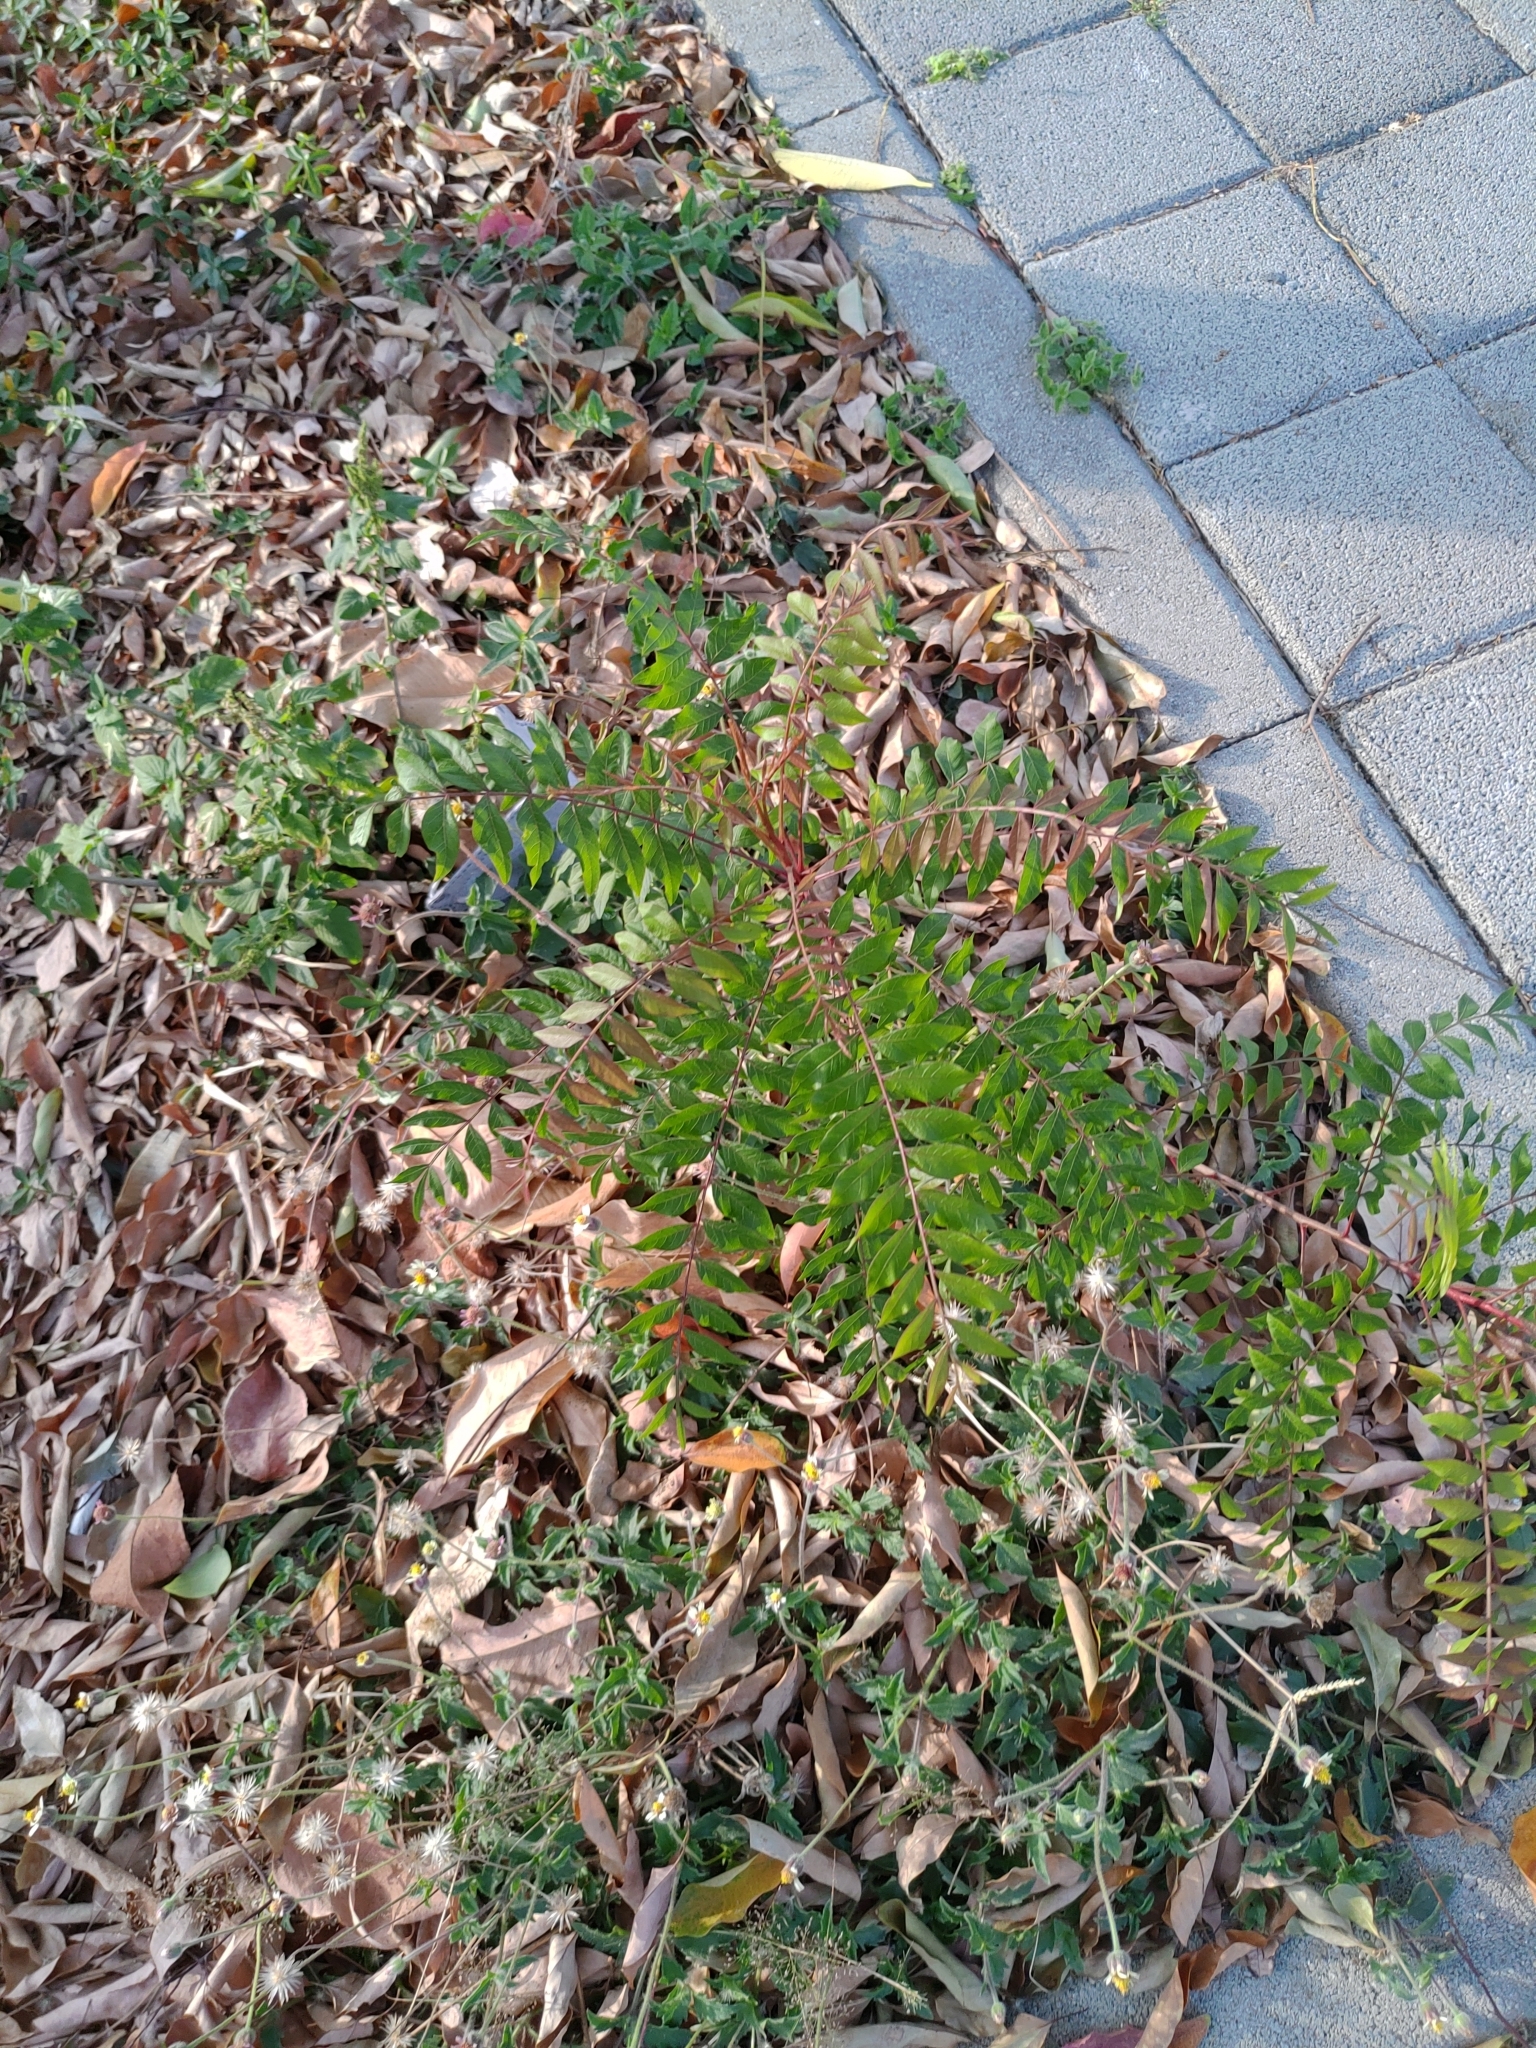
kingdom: Plantae
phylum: Tracheophyta
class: Magnoliopsida
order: Sapindales
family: Anacardiaceae
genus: Pistacia
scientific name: Pistacia chinensis
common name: Chinese pistache
